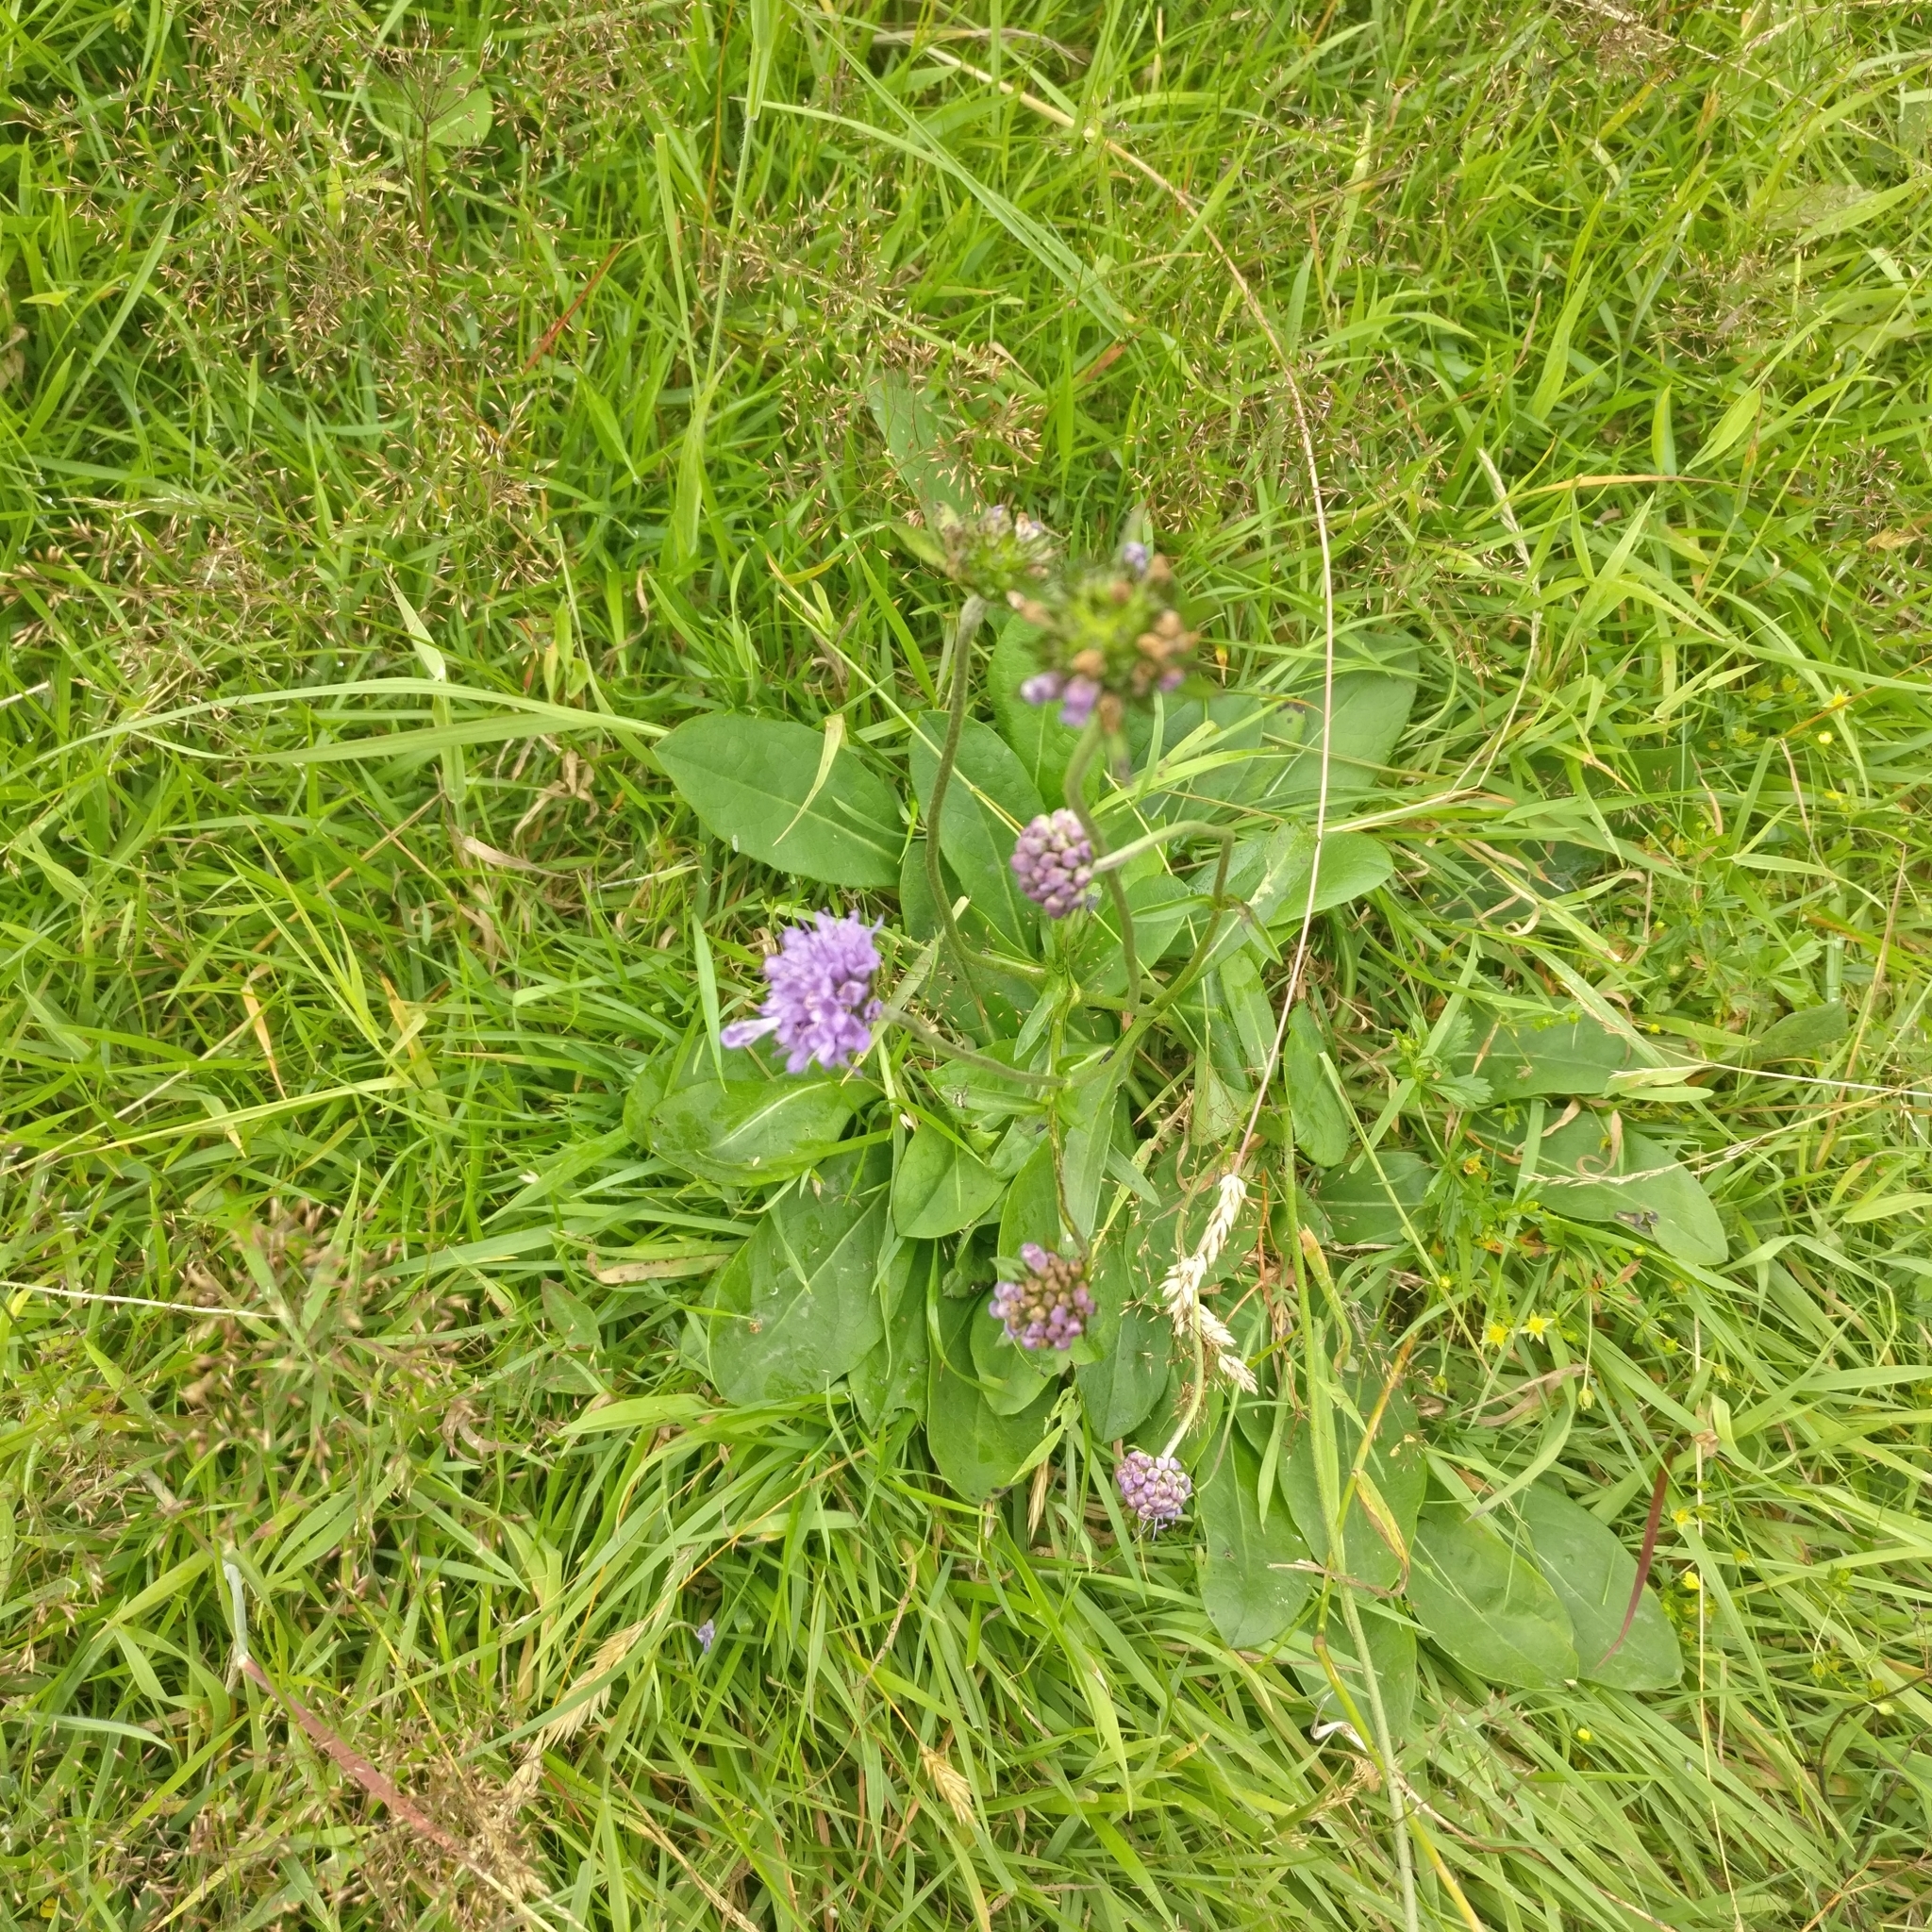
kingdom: Plantae
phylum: Tracheophyta
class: Magnoliopsida
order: Dipsacales
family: Caprifoliaceae
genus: Succisa
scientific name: Succisa pratensis
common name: Devil's-bit
